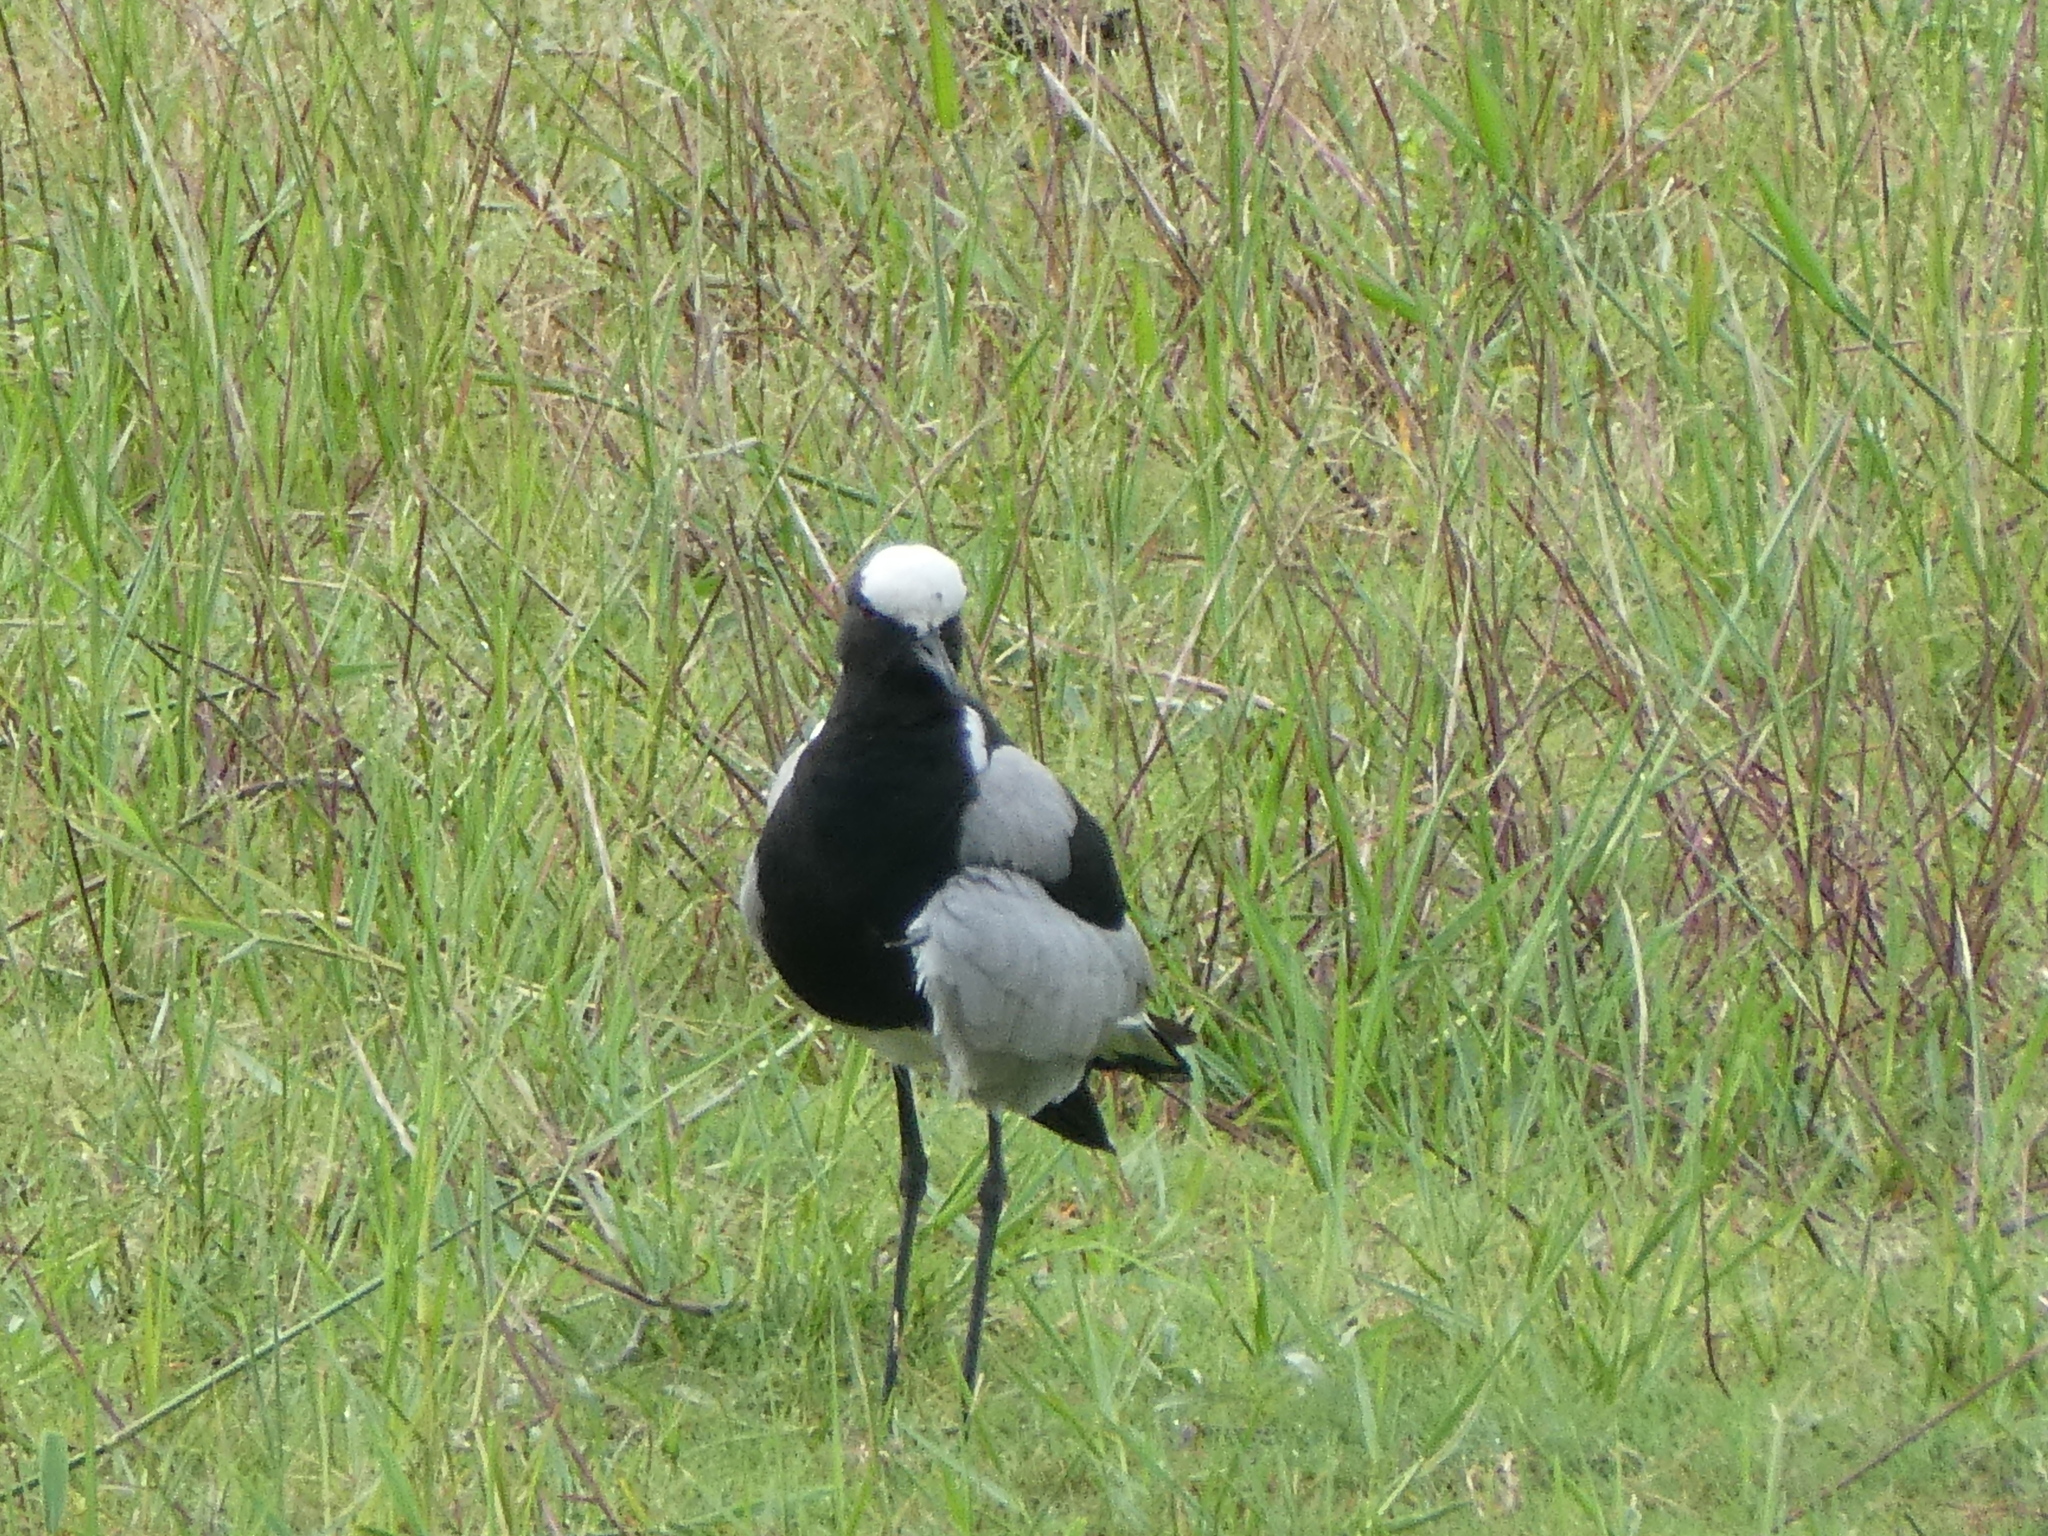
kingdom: Animalia
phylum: Chordata
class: Aves
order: Charadriiformes
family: Charadriidae
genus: Vanellus
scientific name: Vanellus armatus
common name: Blacksmith lapwing
